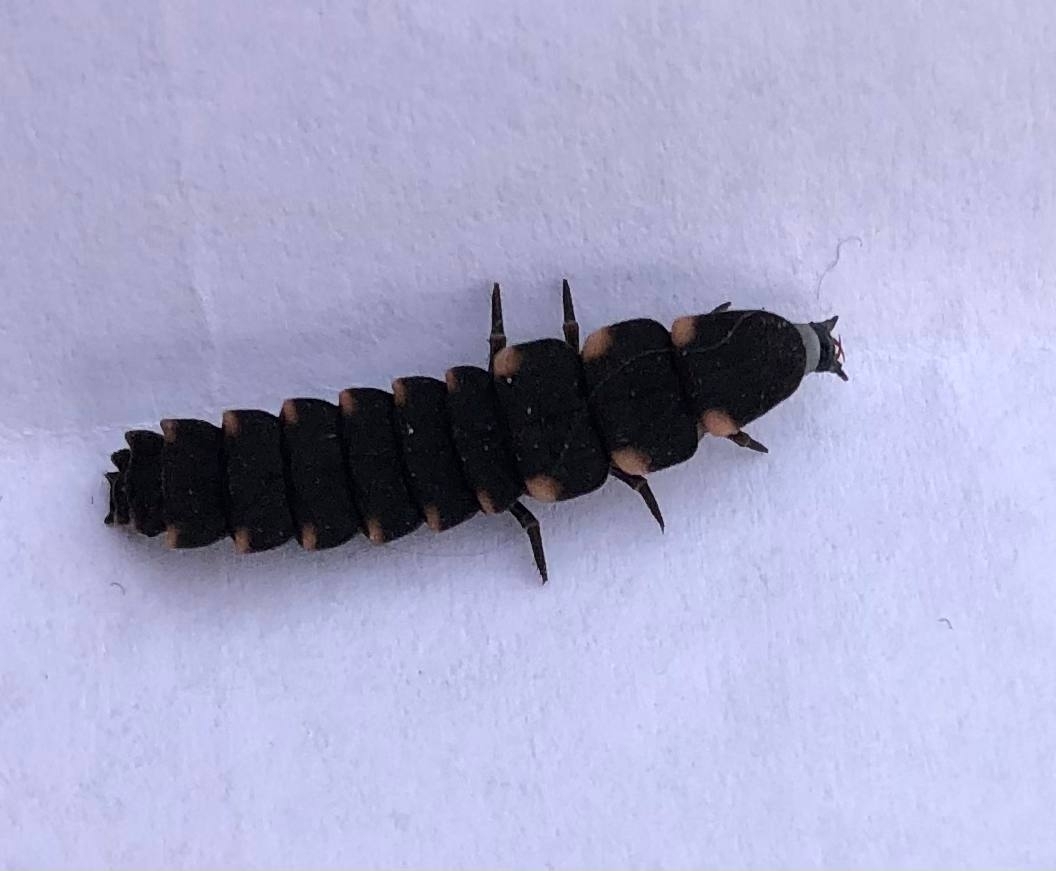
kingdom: Animalia
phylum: Arthropoda
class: Insecta
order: Coleoptera
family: Lampyridae
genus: Lampyris
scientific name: Lampyris noctiluca
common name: Glow-worm
